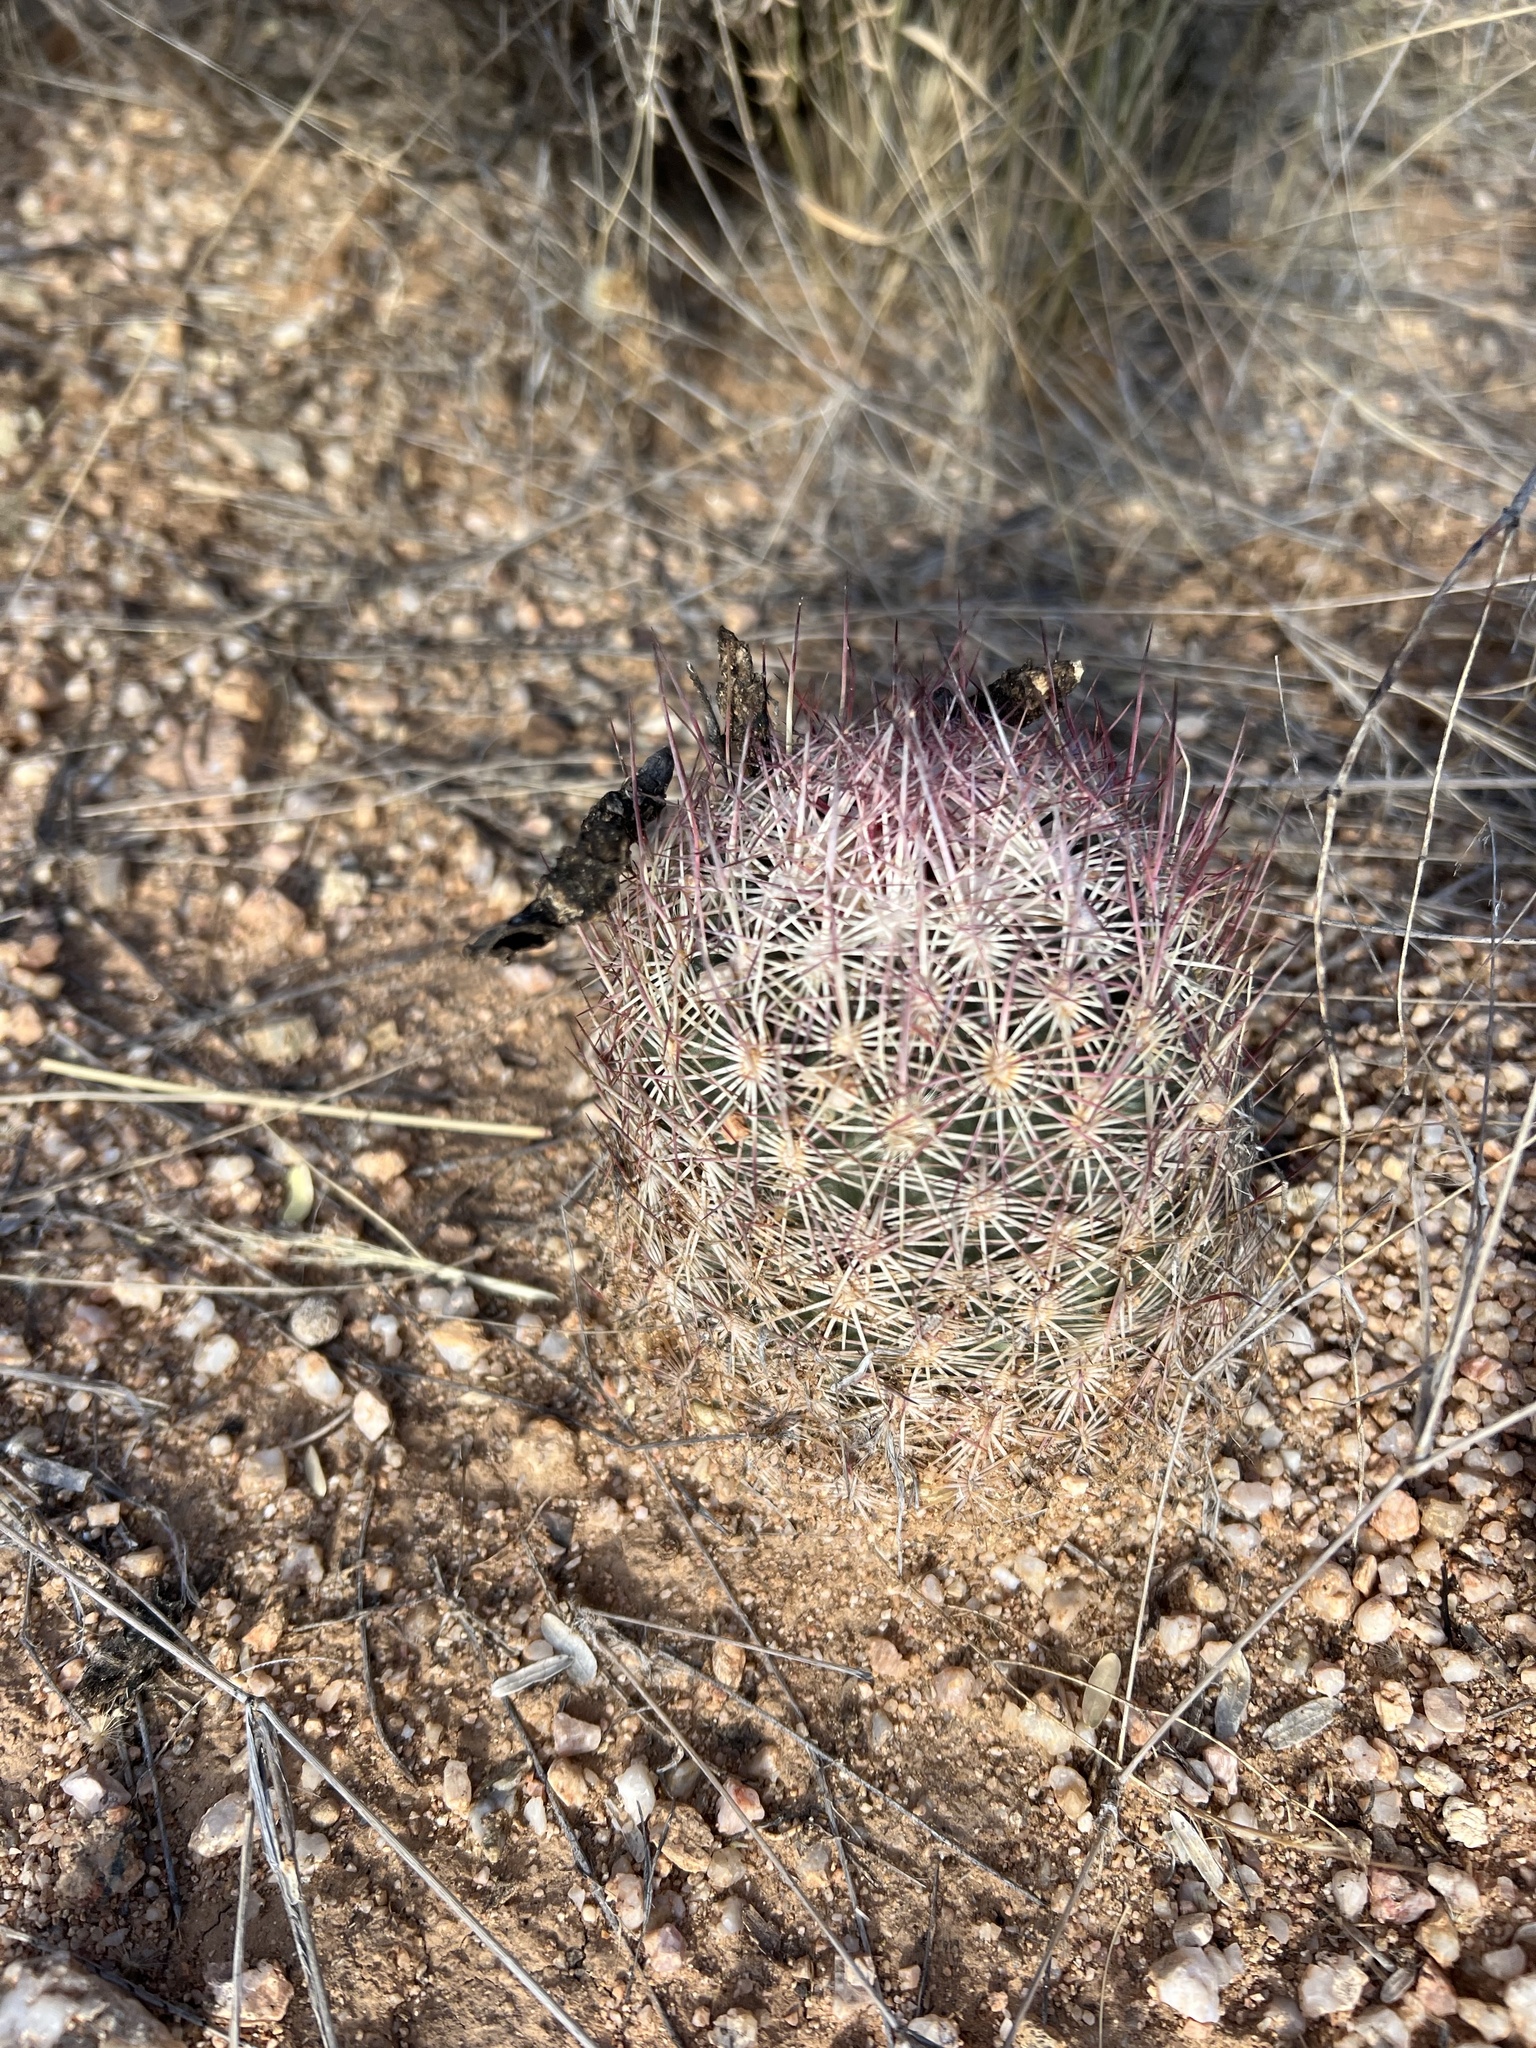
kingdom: Plantae
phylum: Tracheophyta
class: Magnoliopsida
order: Caryophyllales
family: Cactaceae
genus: Sclerocactus
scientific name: Sclerocactus johnsonii
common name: Eight-spine fishhook cactus
